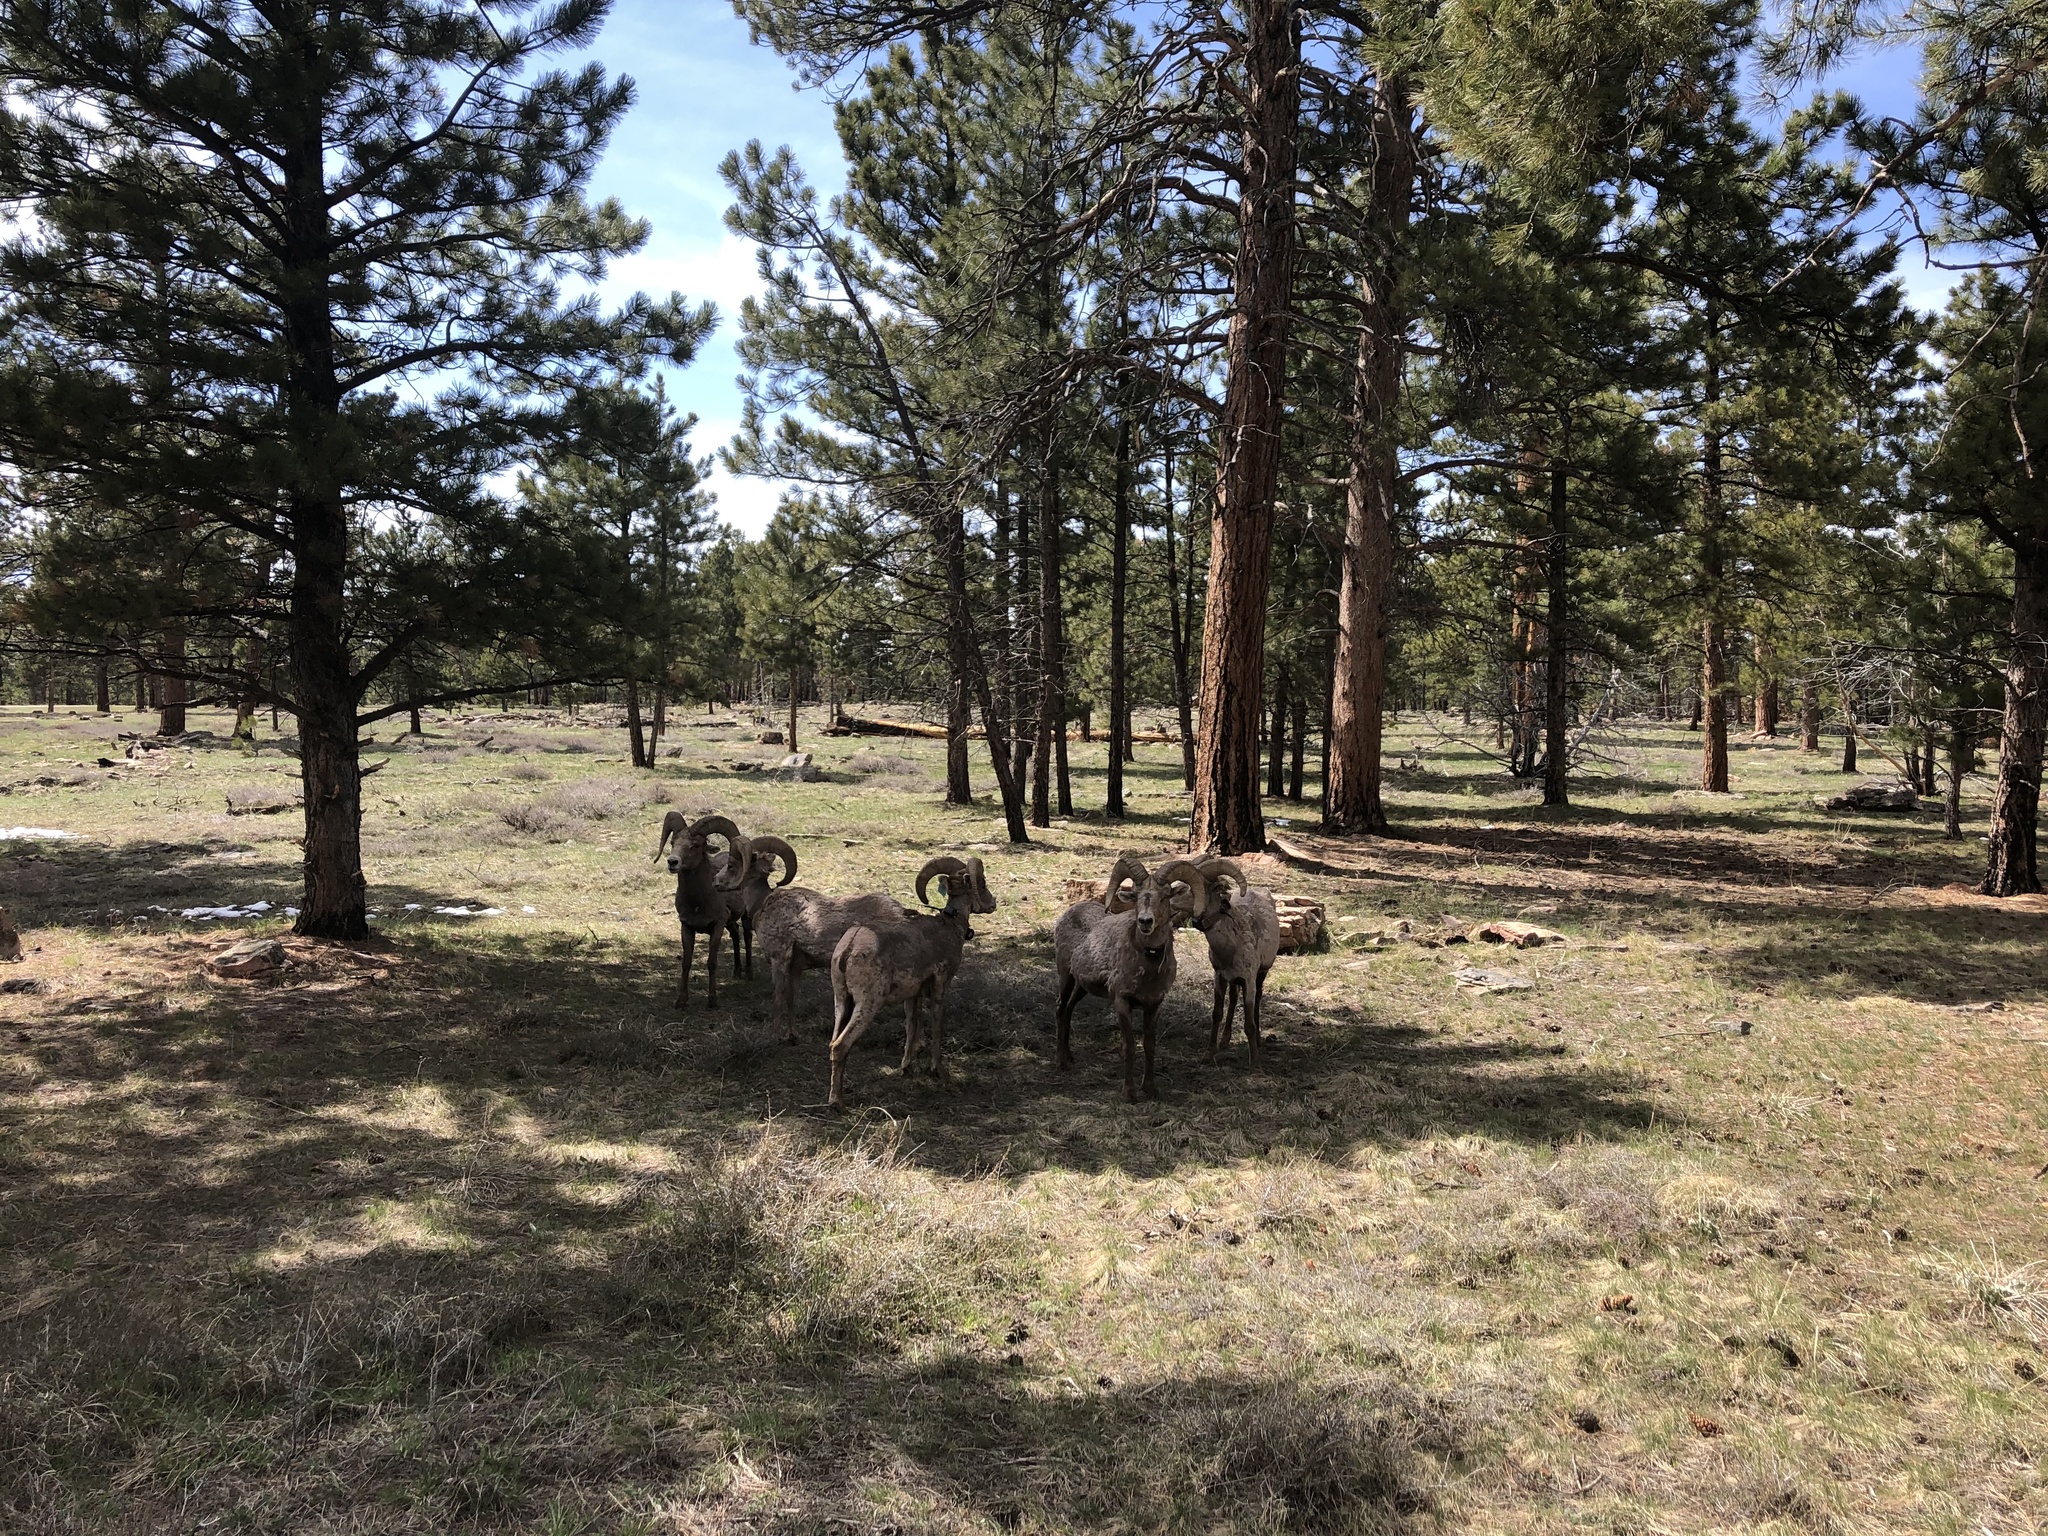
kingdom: Animalia
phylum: Chordata
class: Mammalia
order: Artiodactyla
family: Bovidae
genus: Ovis
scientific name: Ovis canadensis
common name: Bighorn sheep
